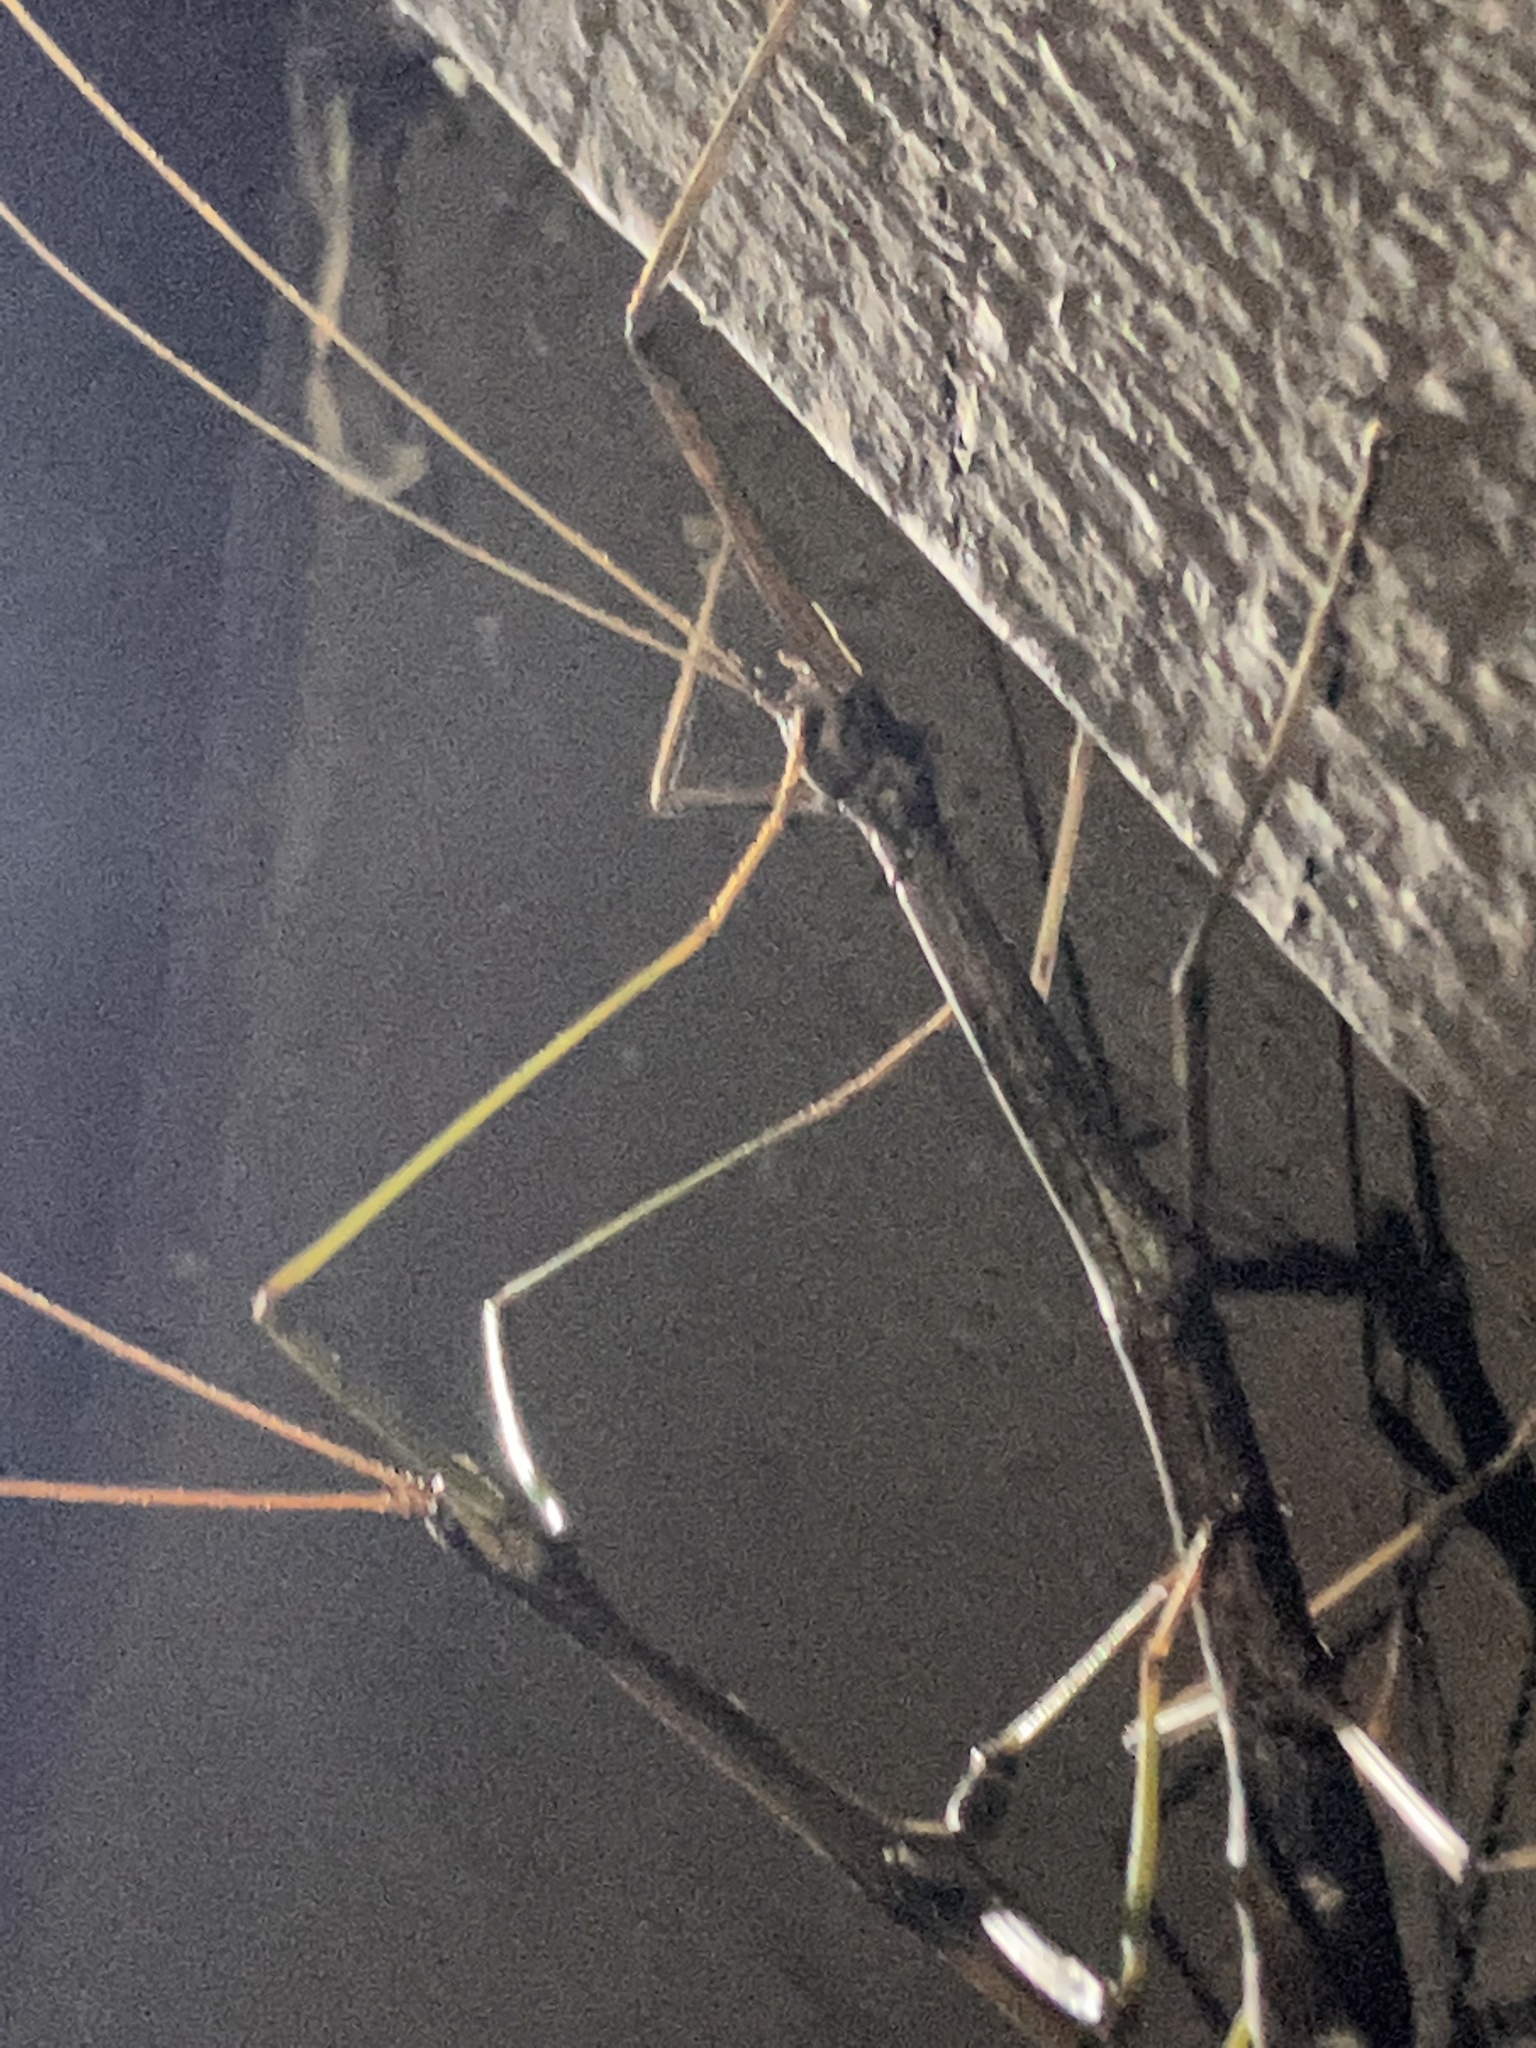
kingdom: Animalia
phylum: Arthropoda
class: Insecta
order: Phasmida
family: Diapheromeridae
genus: Diapheromera
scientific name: Diapheromera femorata
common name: Common american walkingstick
